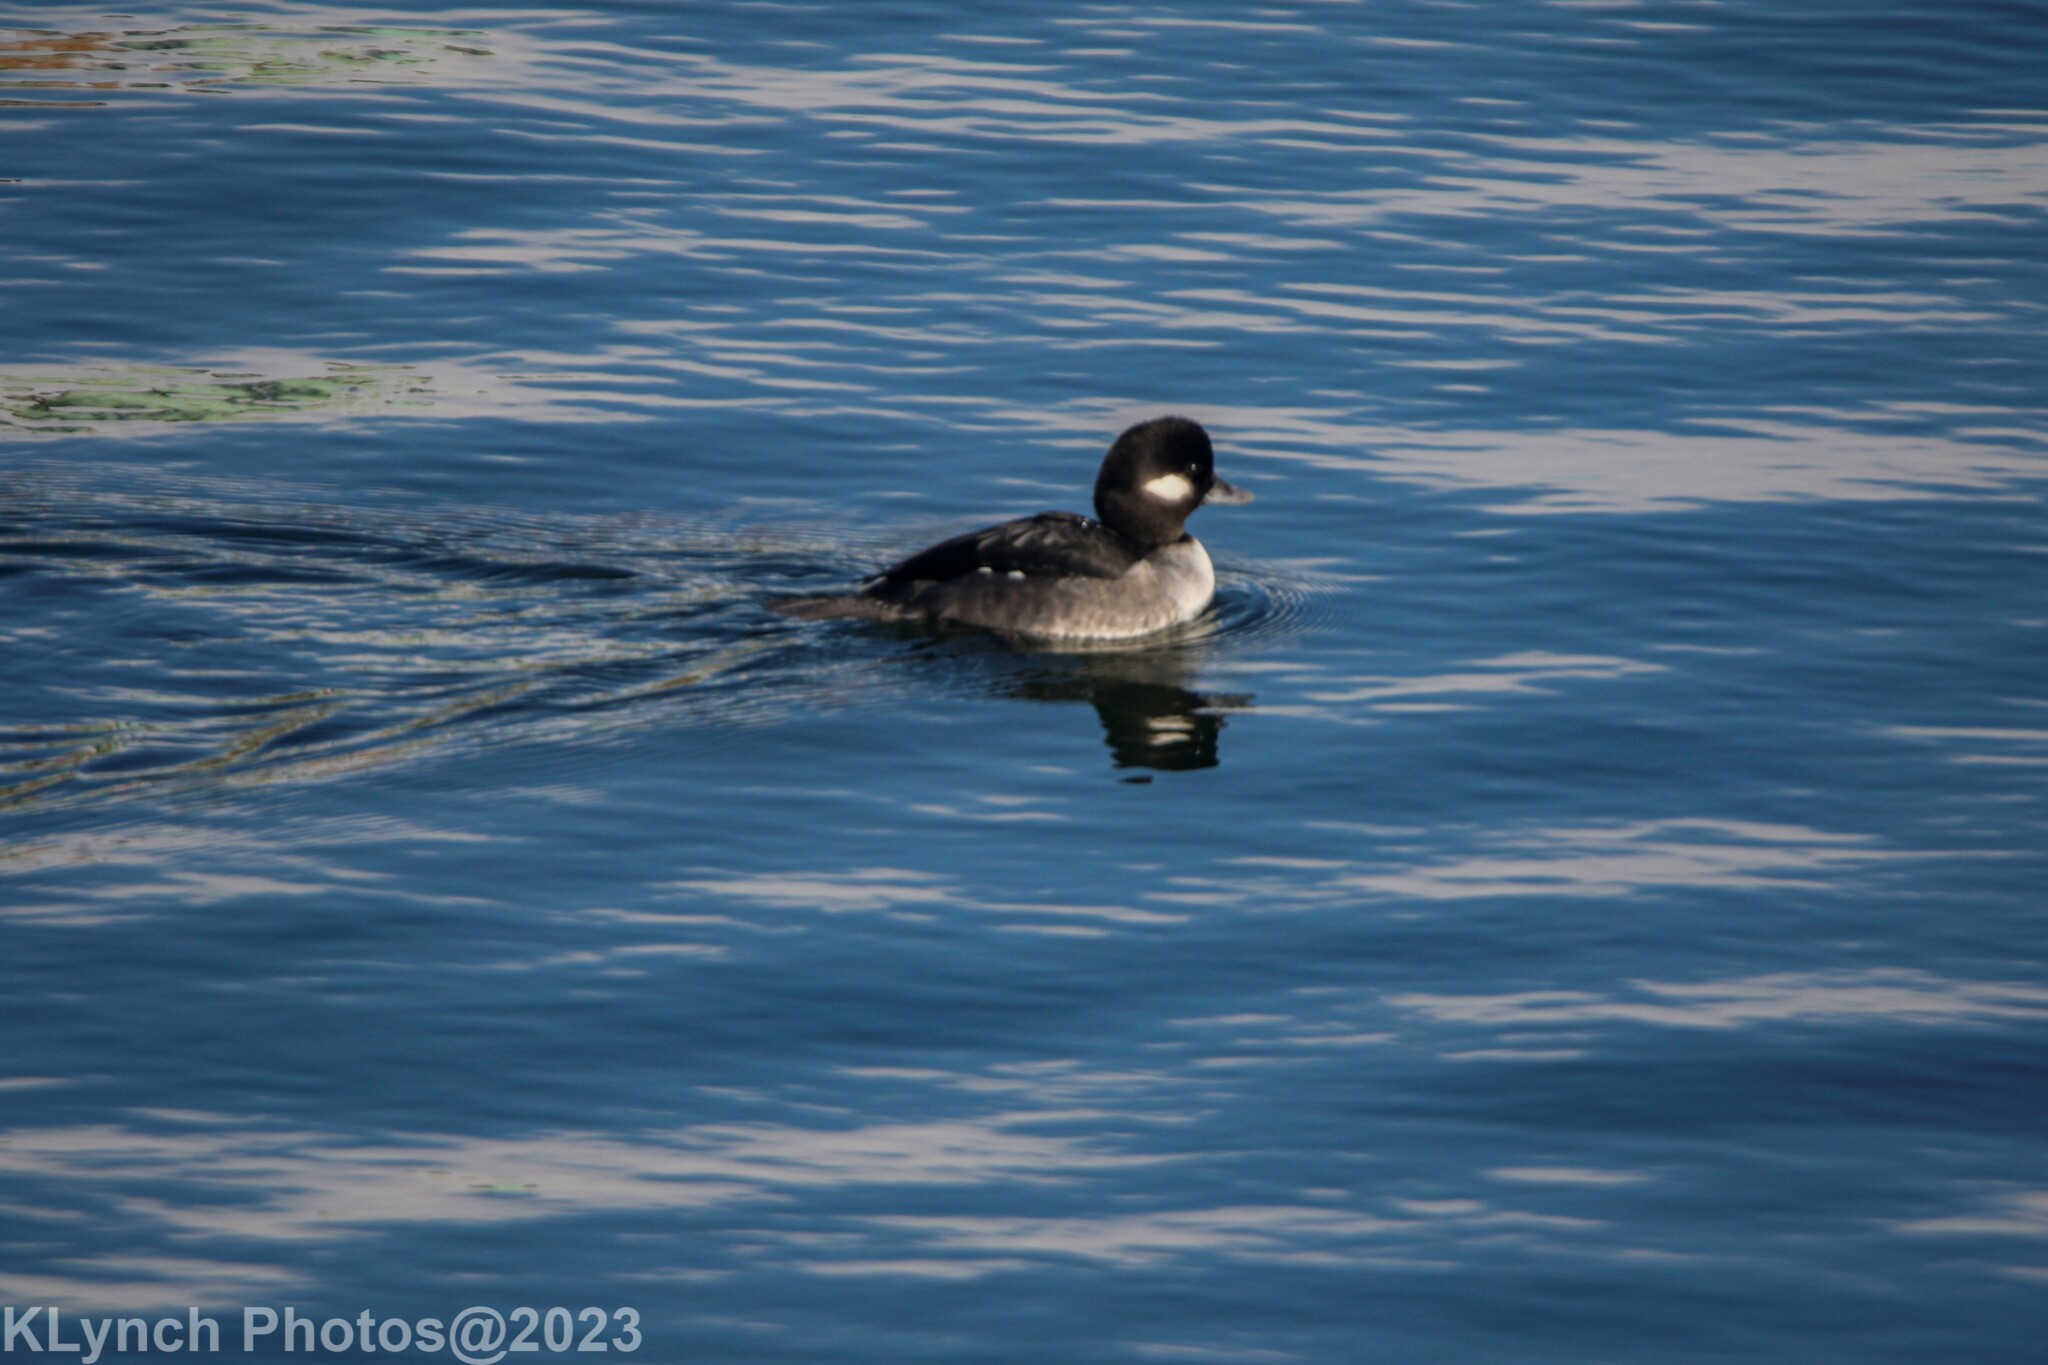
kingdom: Animalia
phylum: Chordata
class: Aves
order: Anseriformes
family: Anatidae
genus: Bucephala
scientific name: Bucephala albeola
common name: Bufflehead
